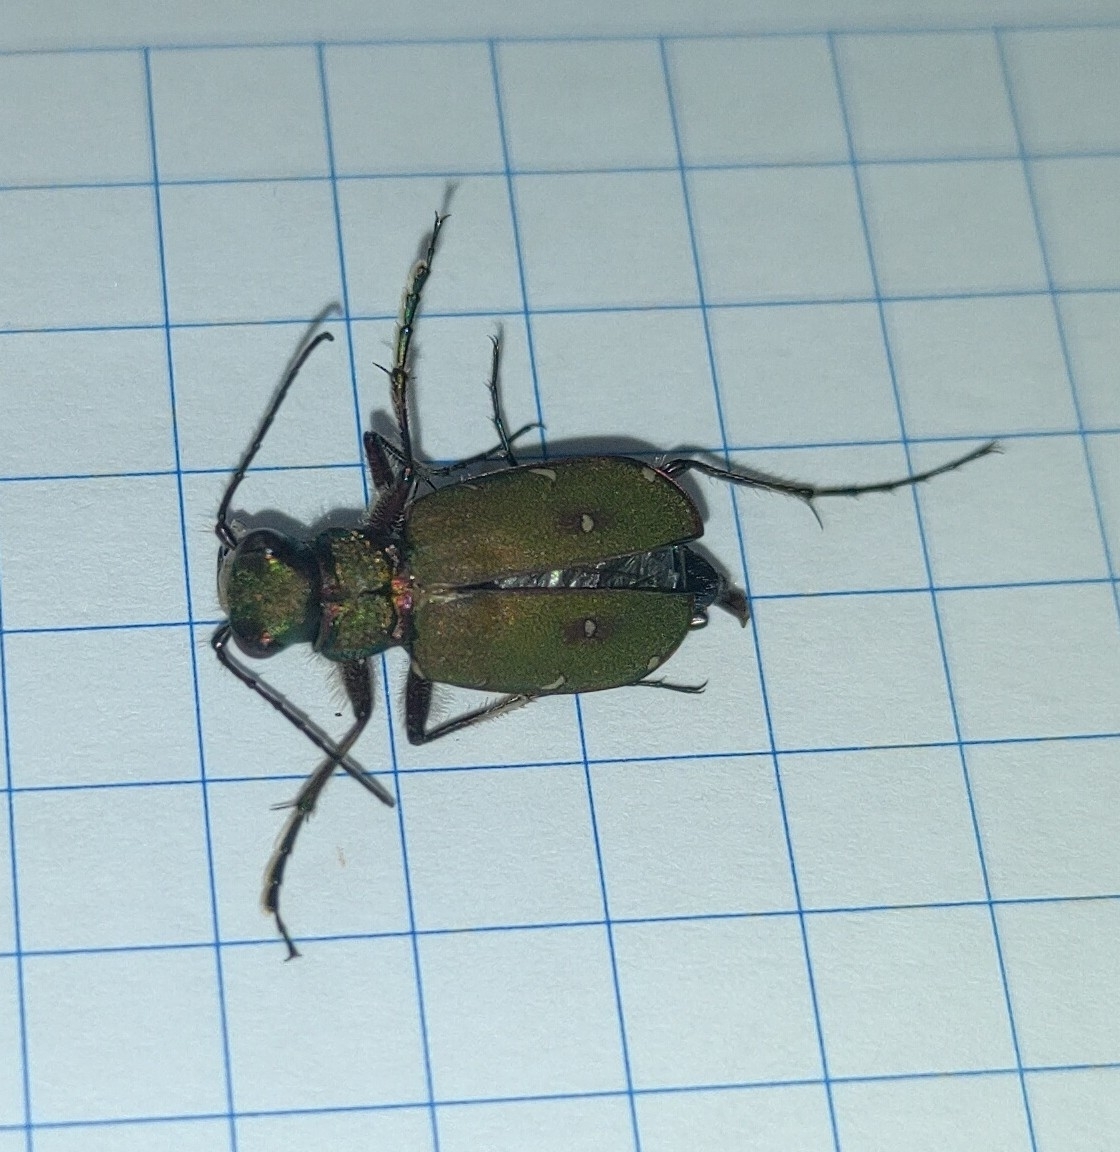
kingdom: Animalia
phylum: Arthropoda
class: Insecta
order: Coleoptera
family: Carabidae
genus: Cicindela
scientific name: Cicindela campestris
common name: Common tiger beetle
